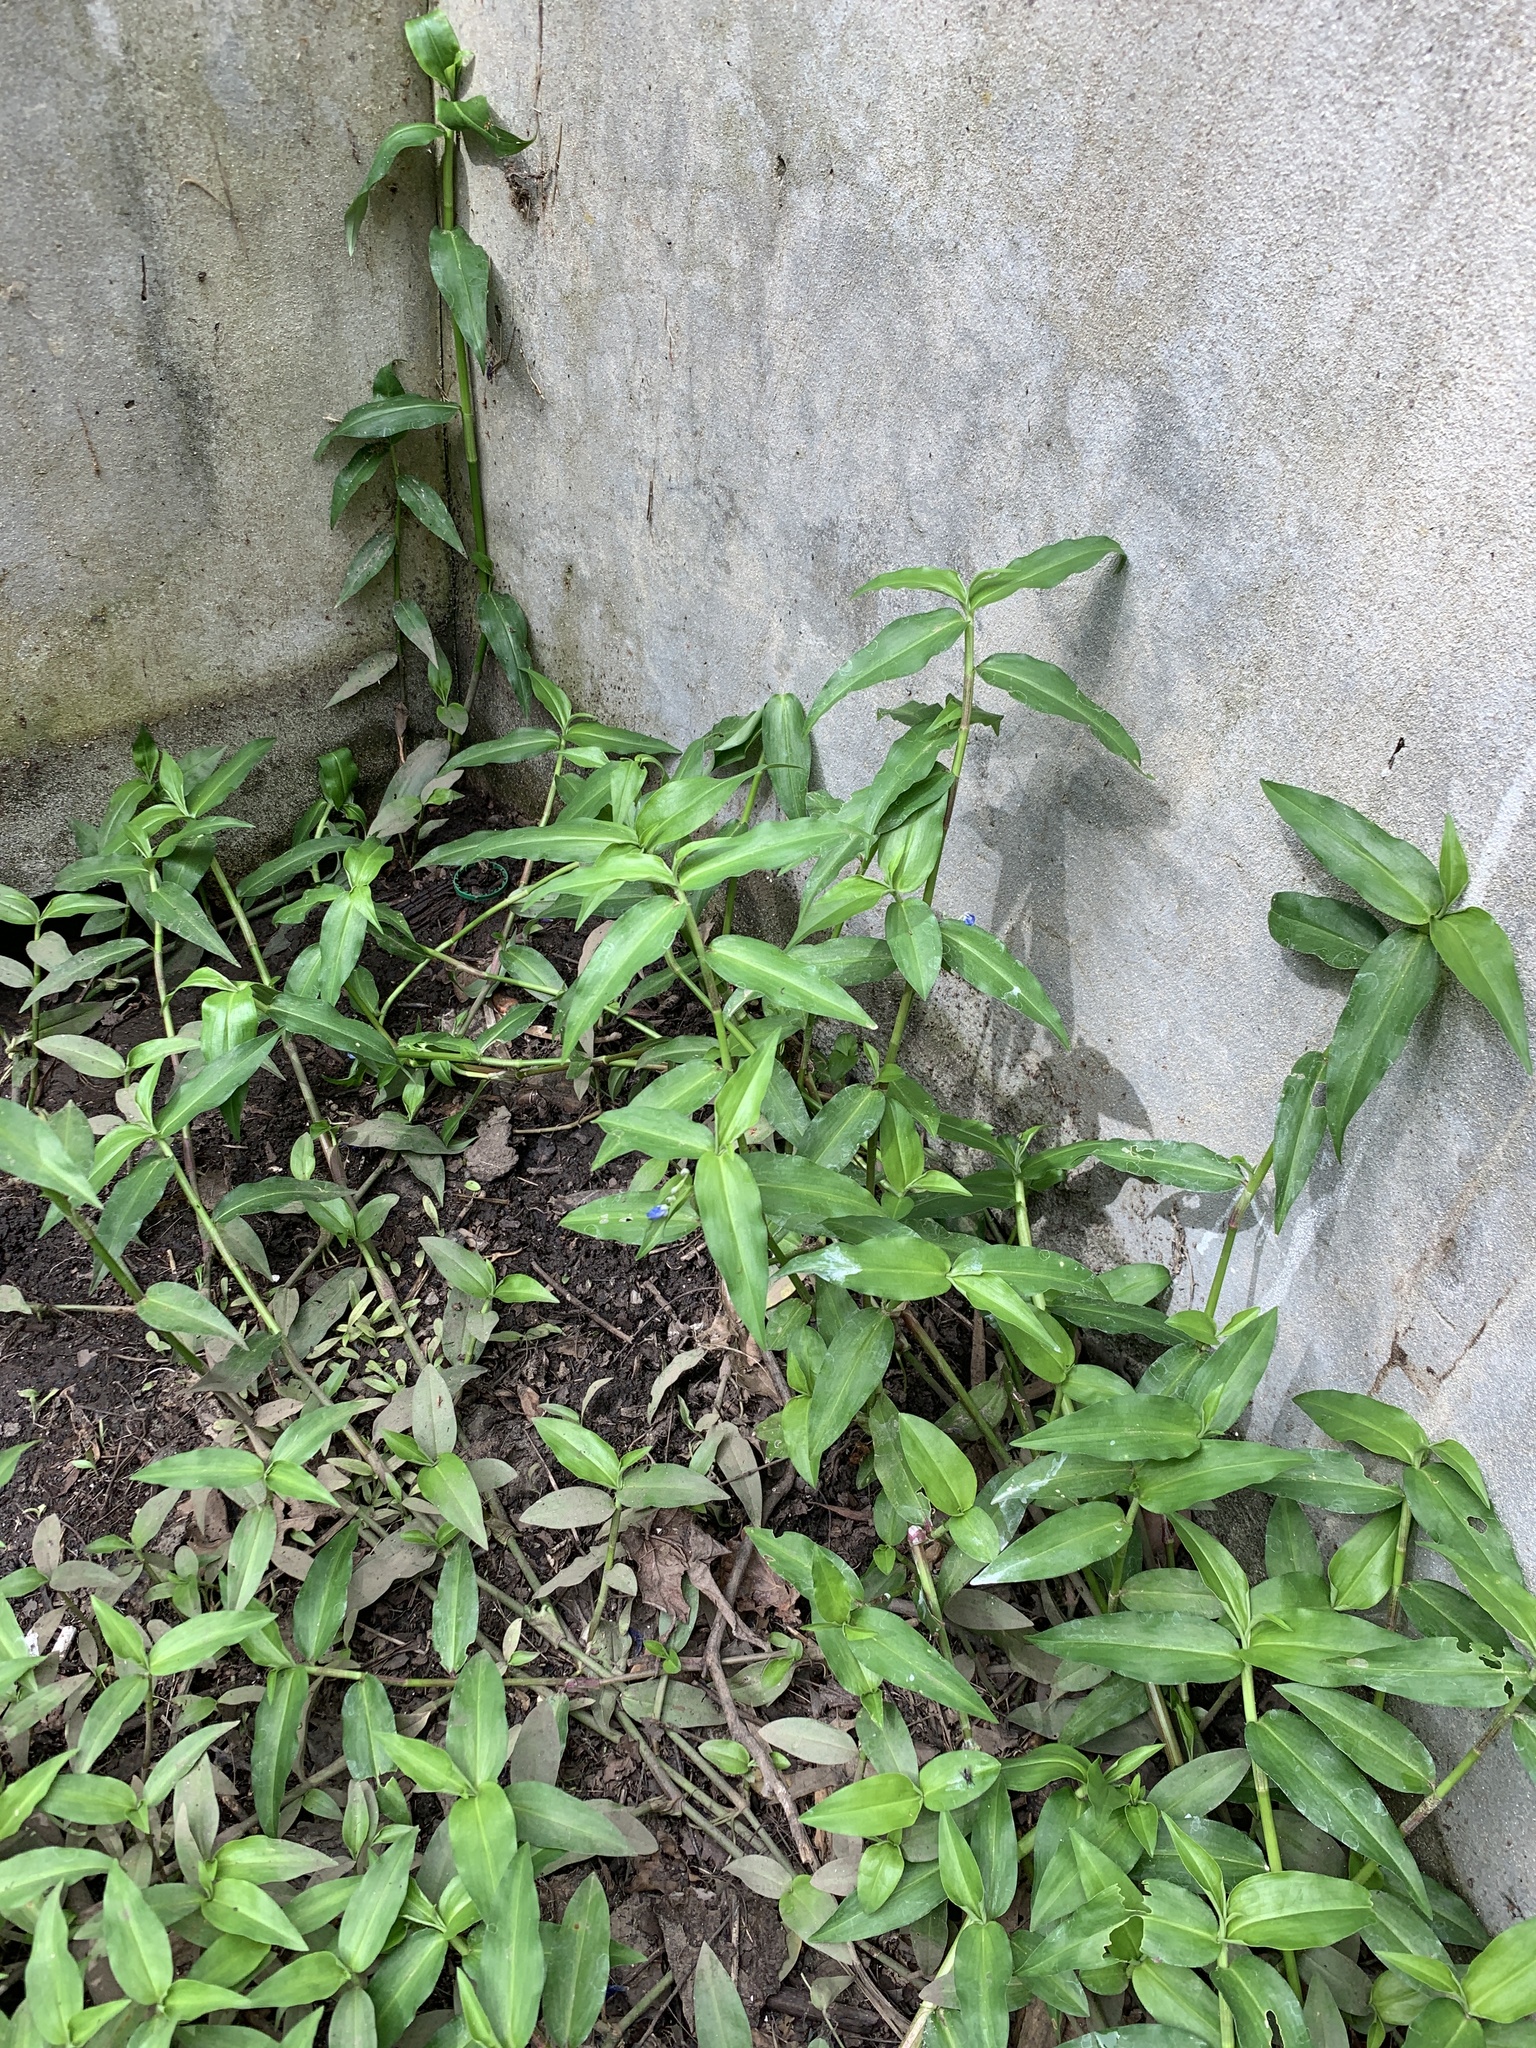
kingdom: Plantae
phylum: Tracheophyta
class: Liliopsida
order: Commelinales
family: Commelinaceae
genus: Commelina
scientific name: Commelina diffusa
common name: Climbing dayflower
